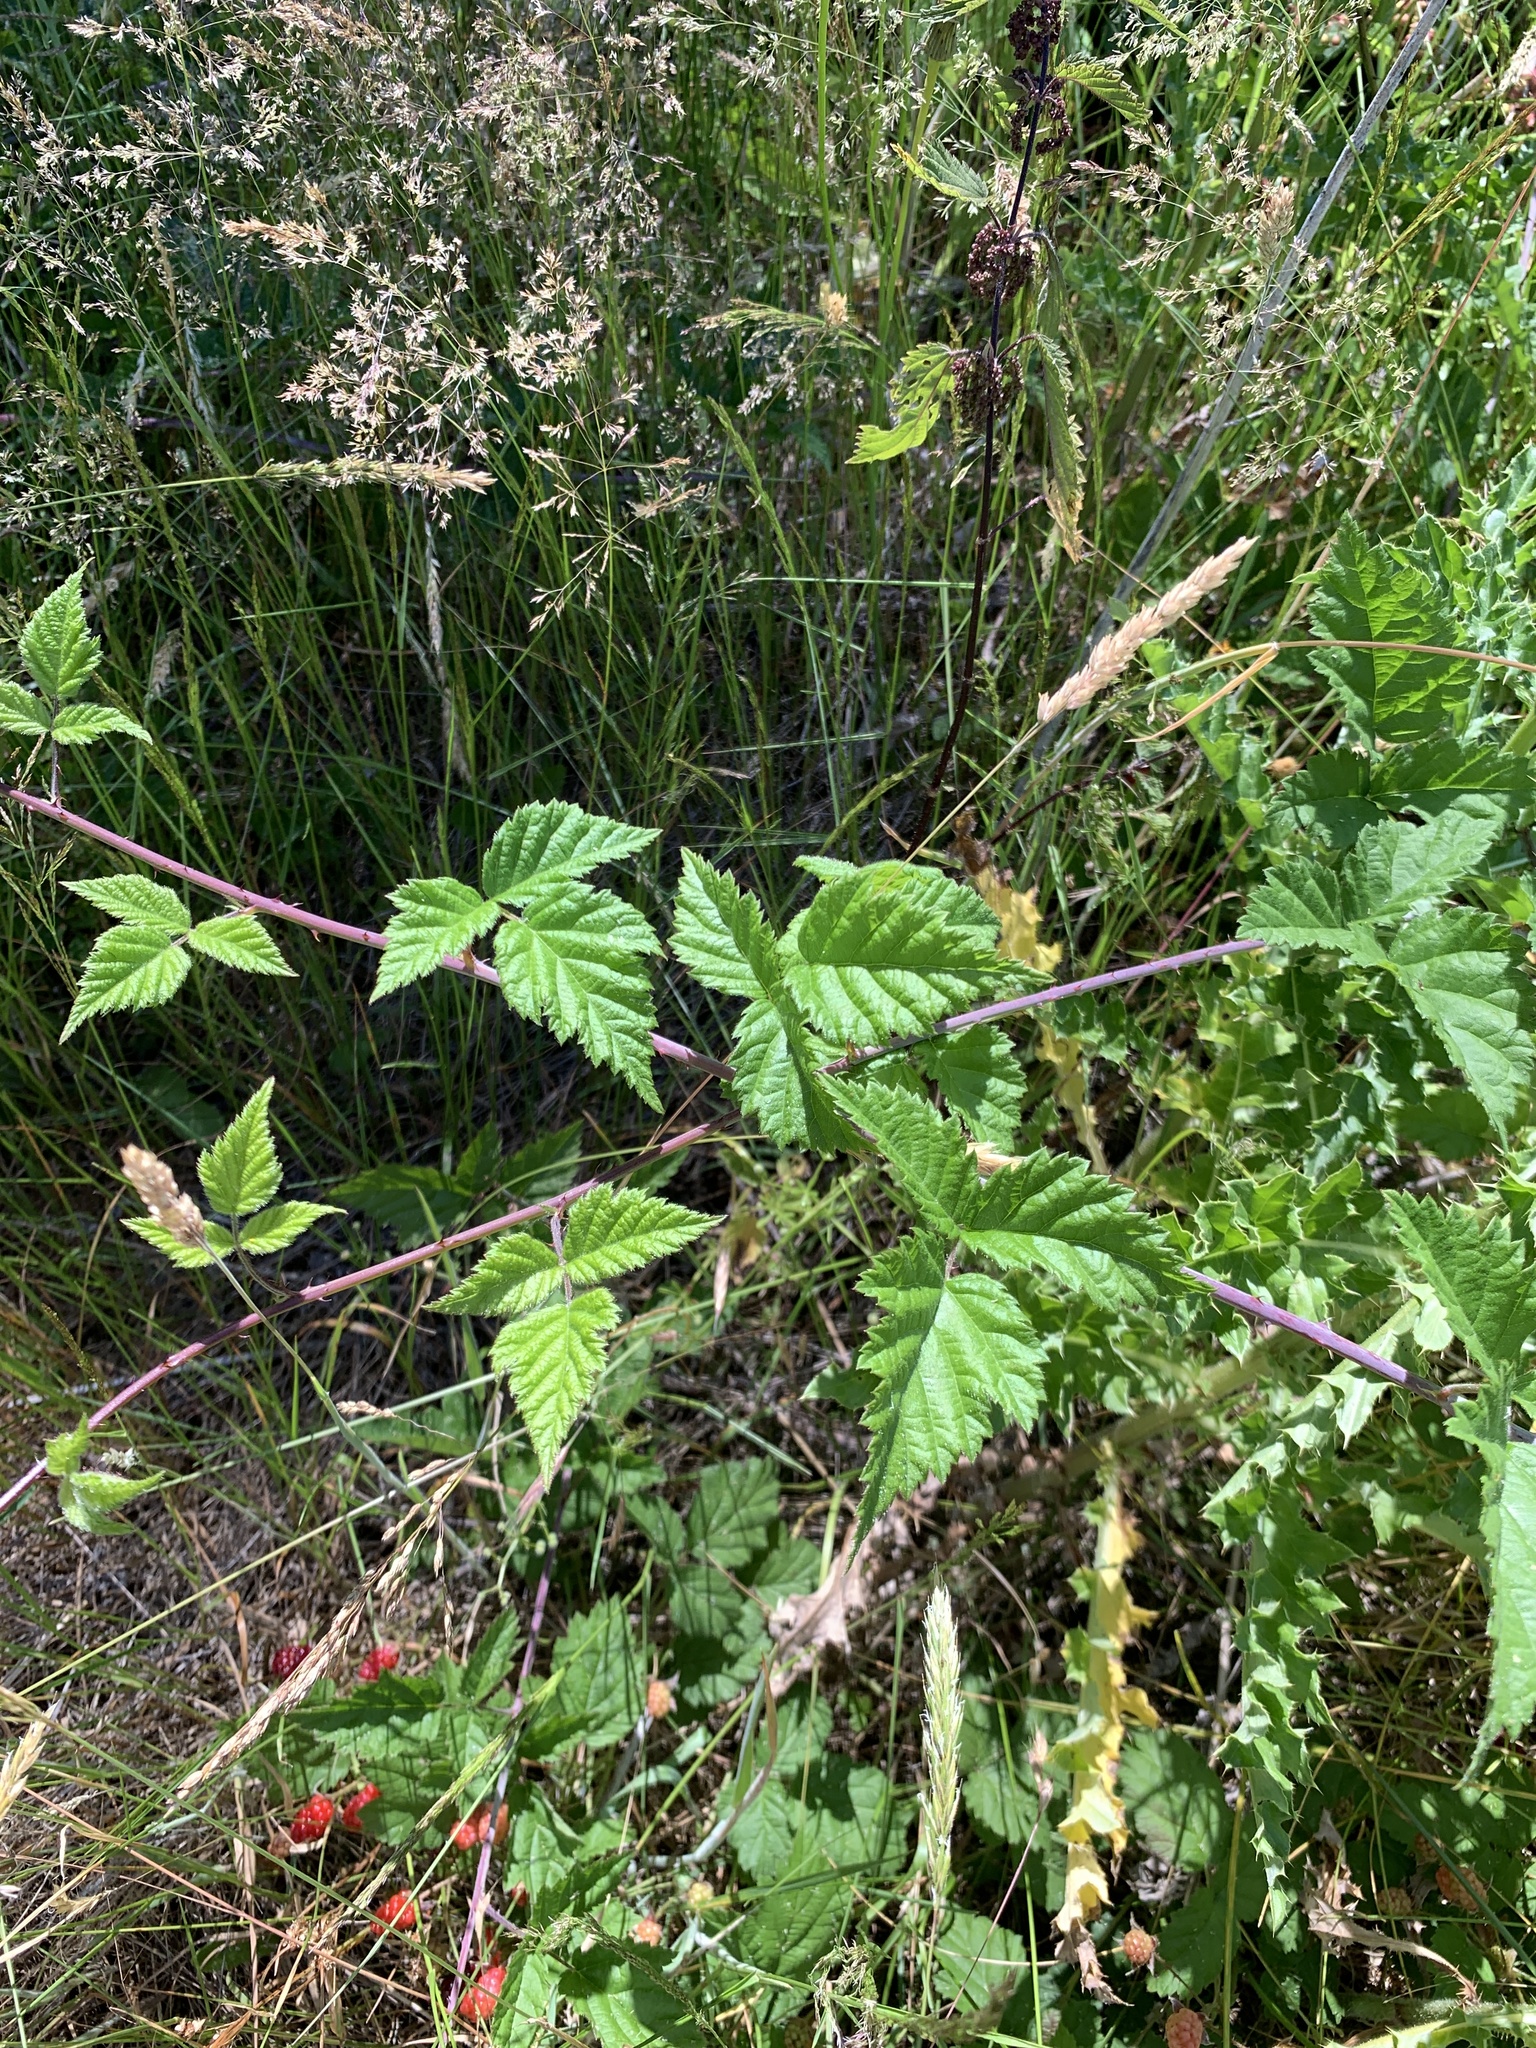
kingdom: Plantae
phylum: Tracheophyta
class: Magnoliopsida
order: Rosales
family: Rosaceae
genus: Rubus
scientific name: Rubus ursinus
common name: Pacific blackberry
